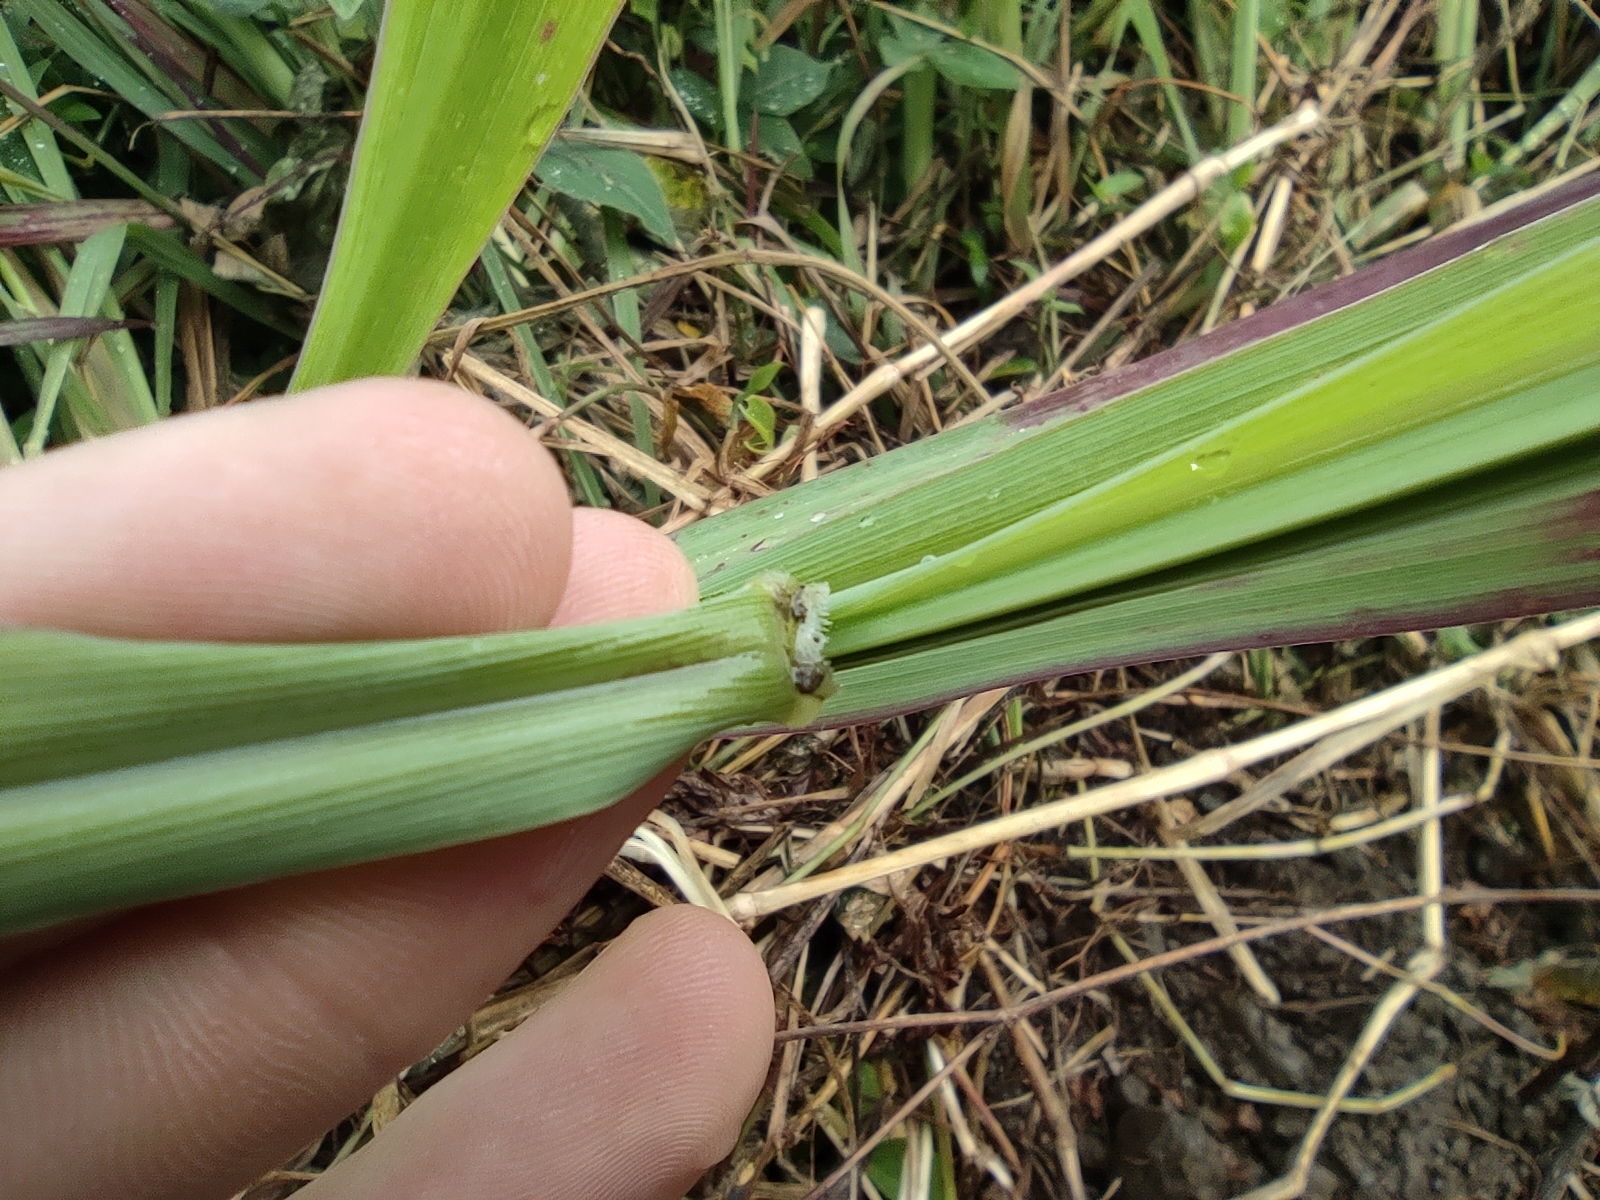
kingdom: Plantae
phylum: Tracheophyta
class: Liliopsida
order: Poales
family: Poaceae
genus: Setaria
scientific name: Setaria sphacelata
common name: African bristlegrass
